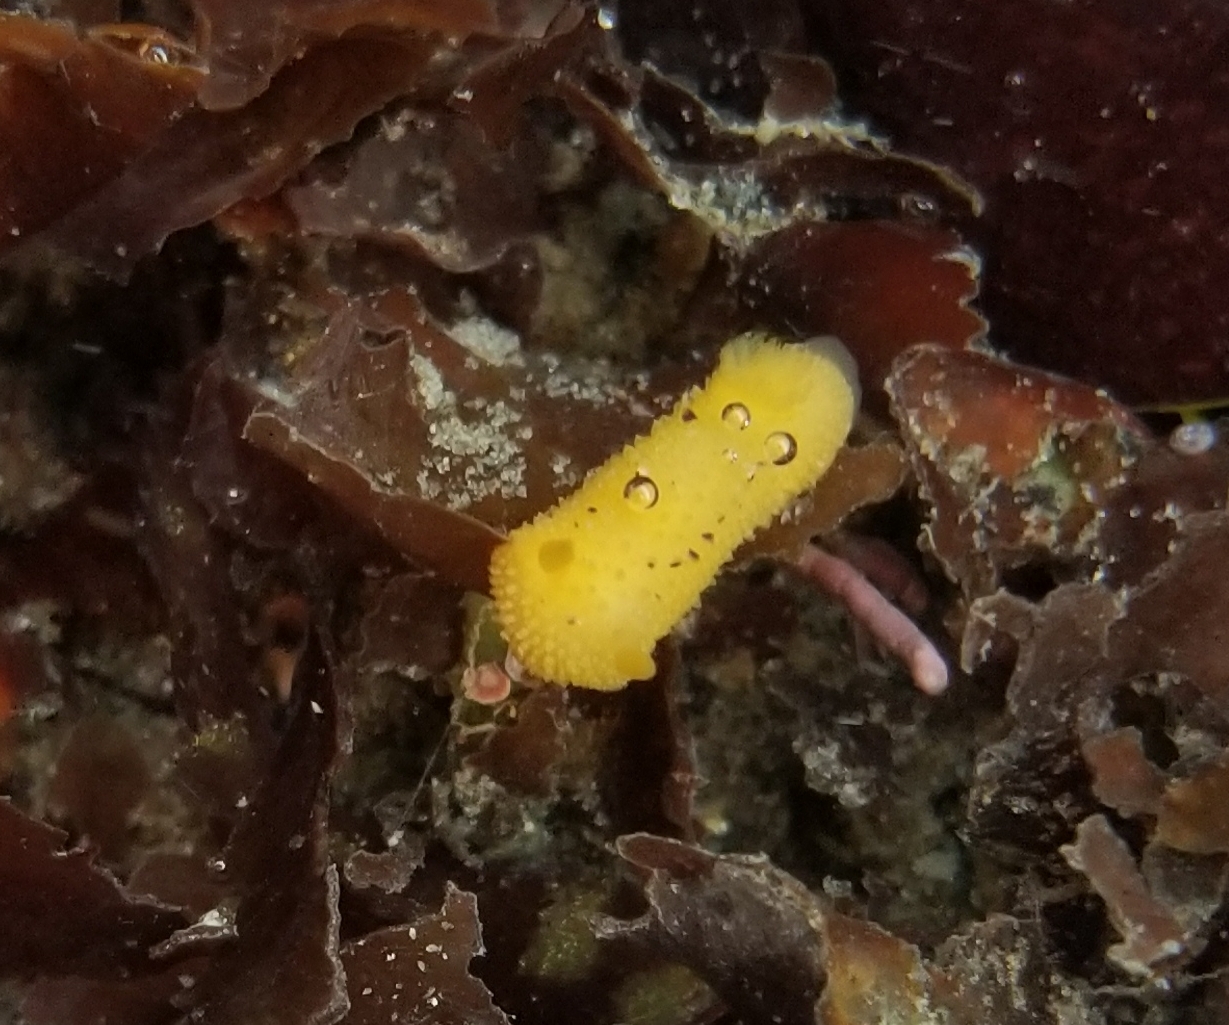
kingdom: Animalia
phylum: Mollusca
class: Gastropoda
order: Nudibranchia
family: Dorididae
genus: Doris
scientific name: Doris montereyensis
